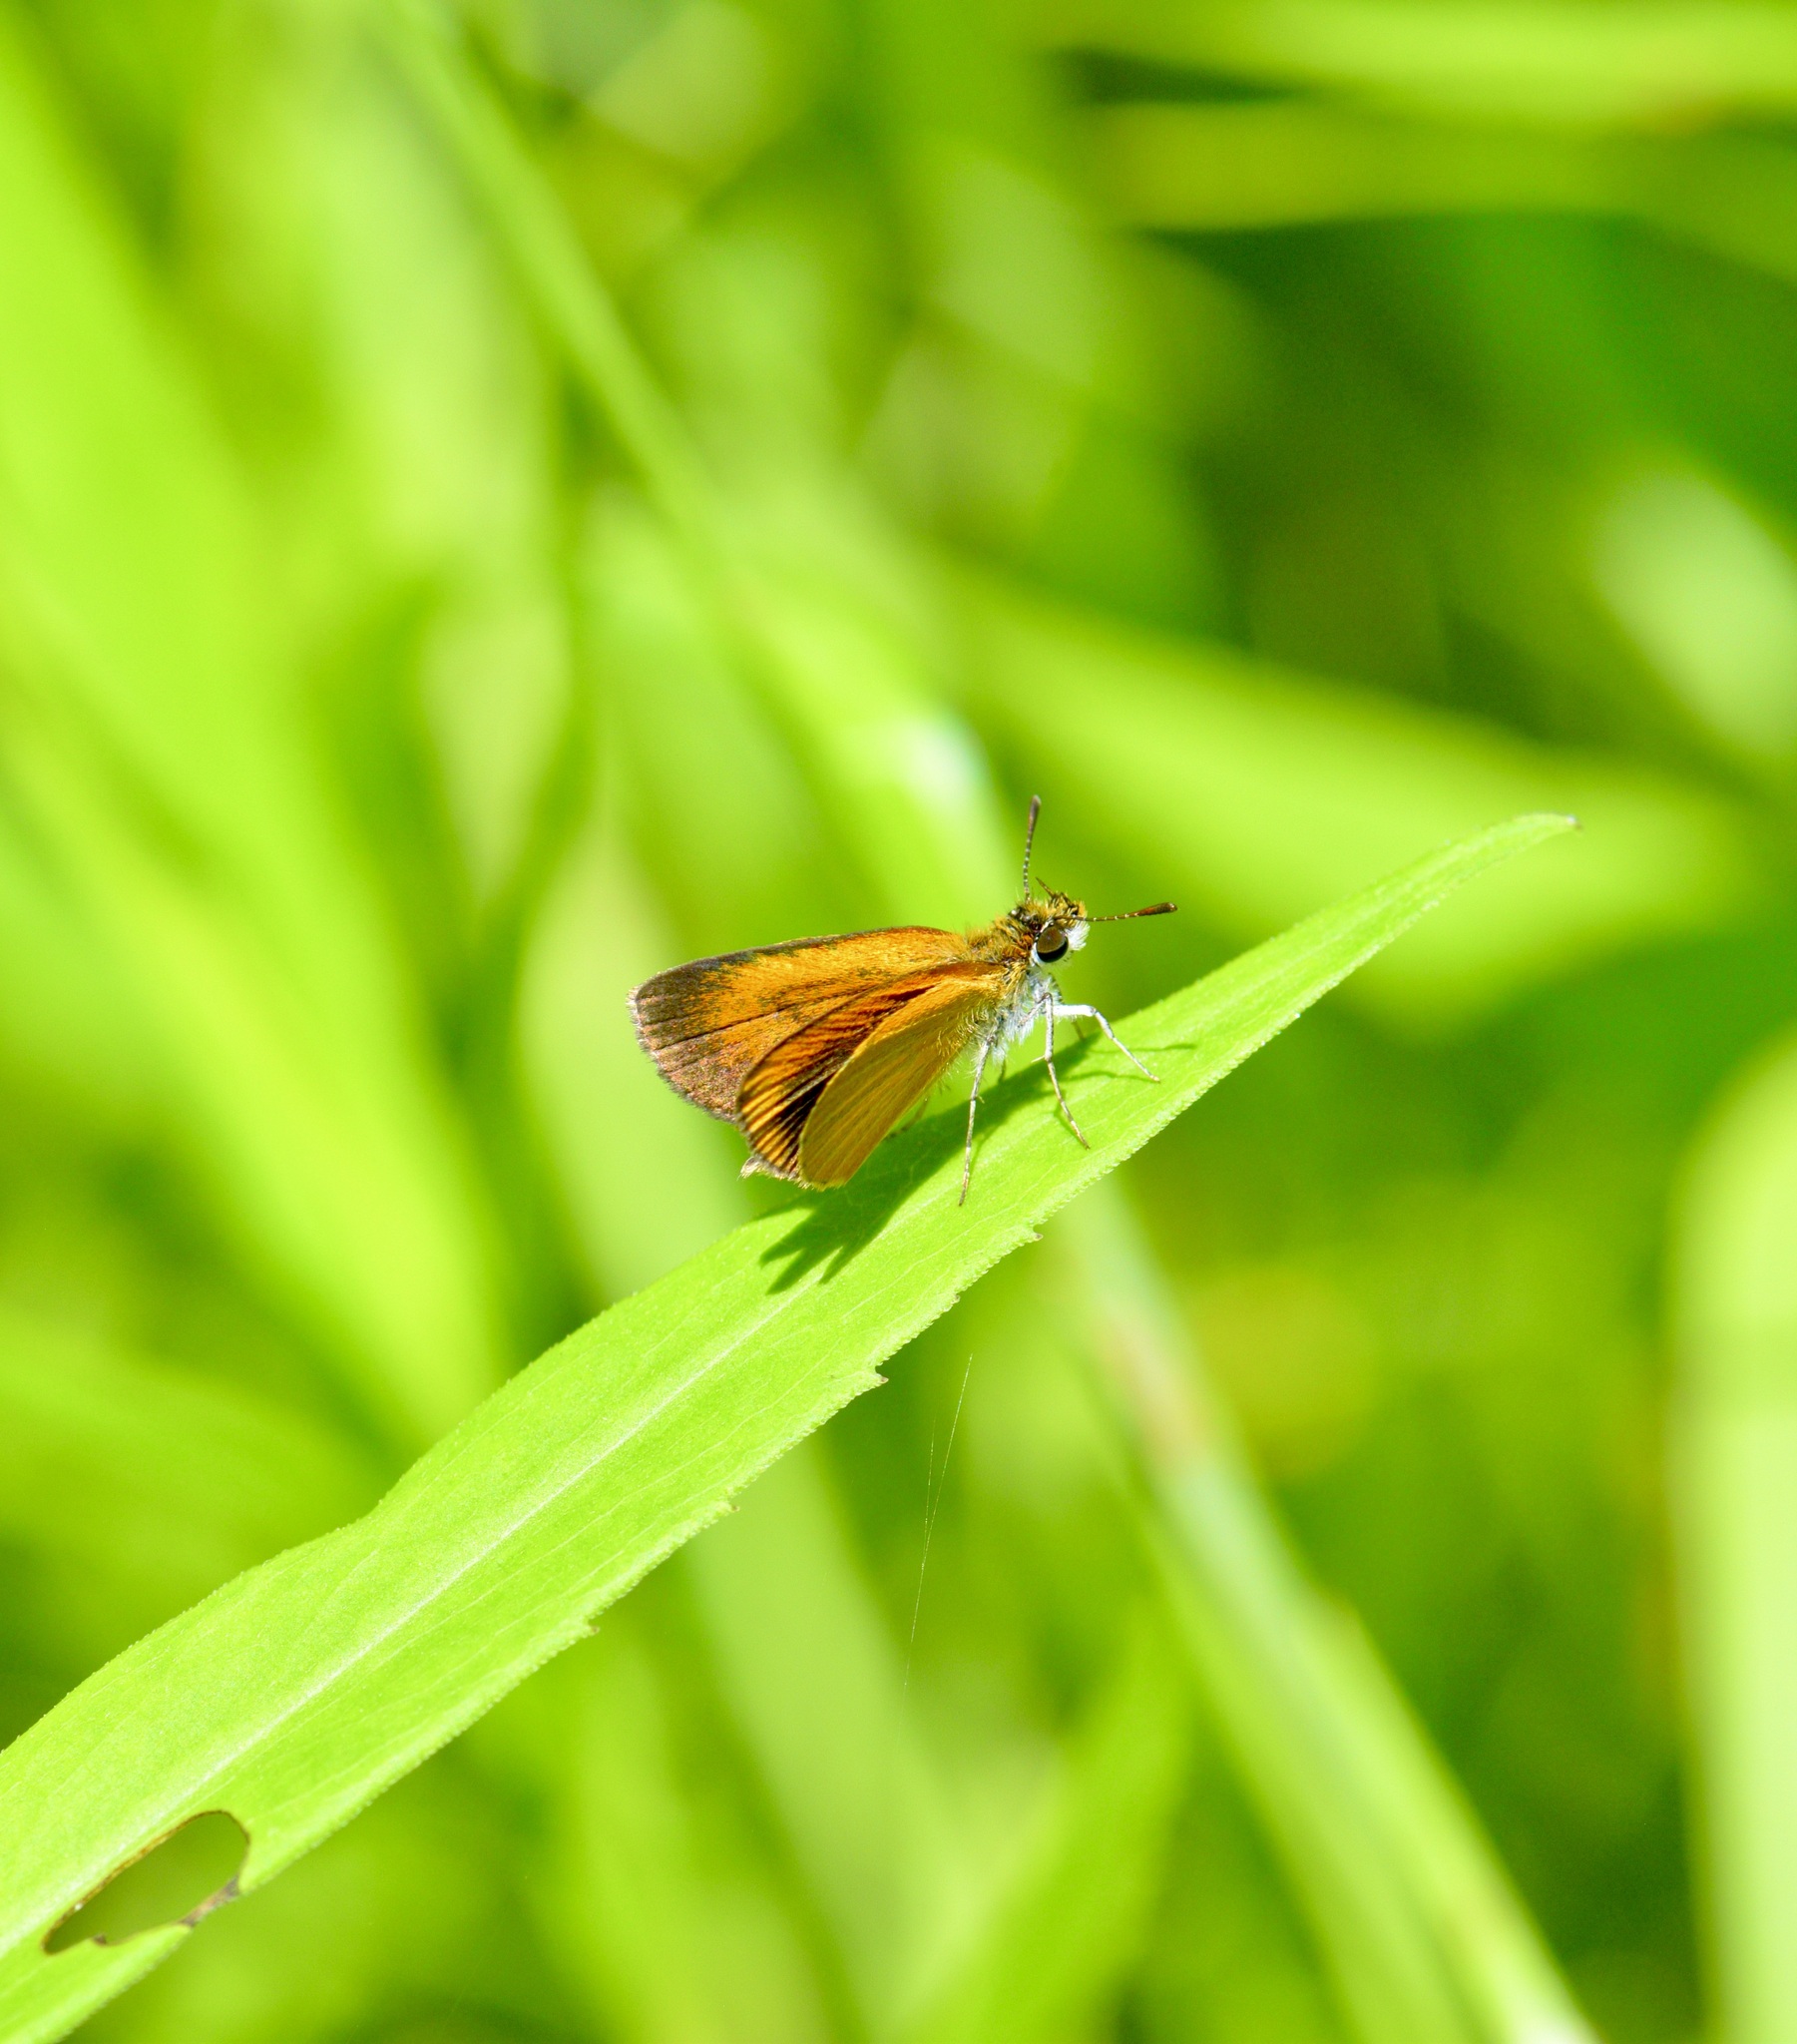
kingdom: Animalia
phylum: Arthropoda
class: Insecta
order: Lepidoptera
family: Hesperiidae
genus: Ancyloxypha
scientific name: Ancyloxypha numitor
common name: Least skipper
